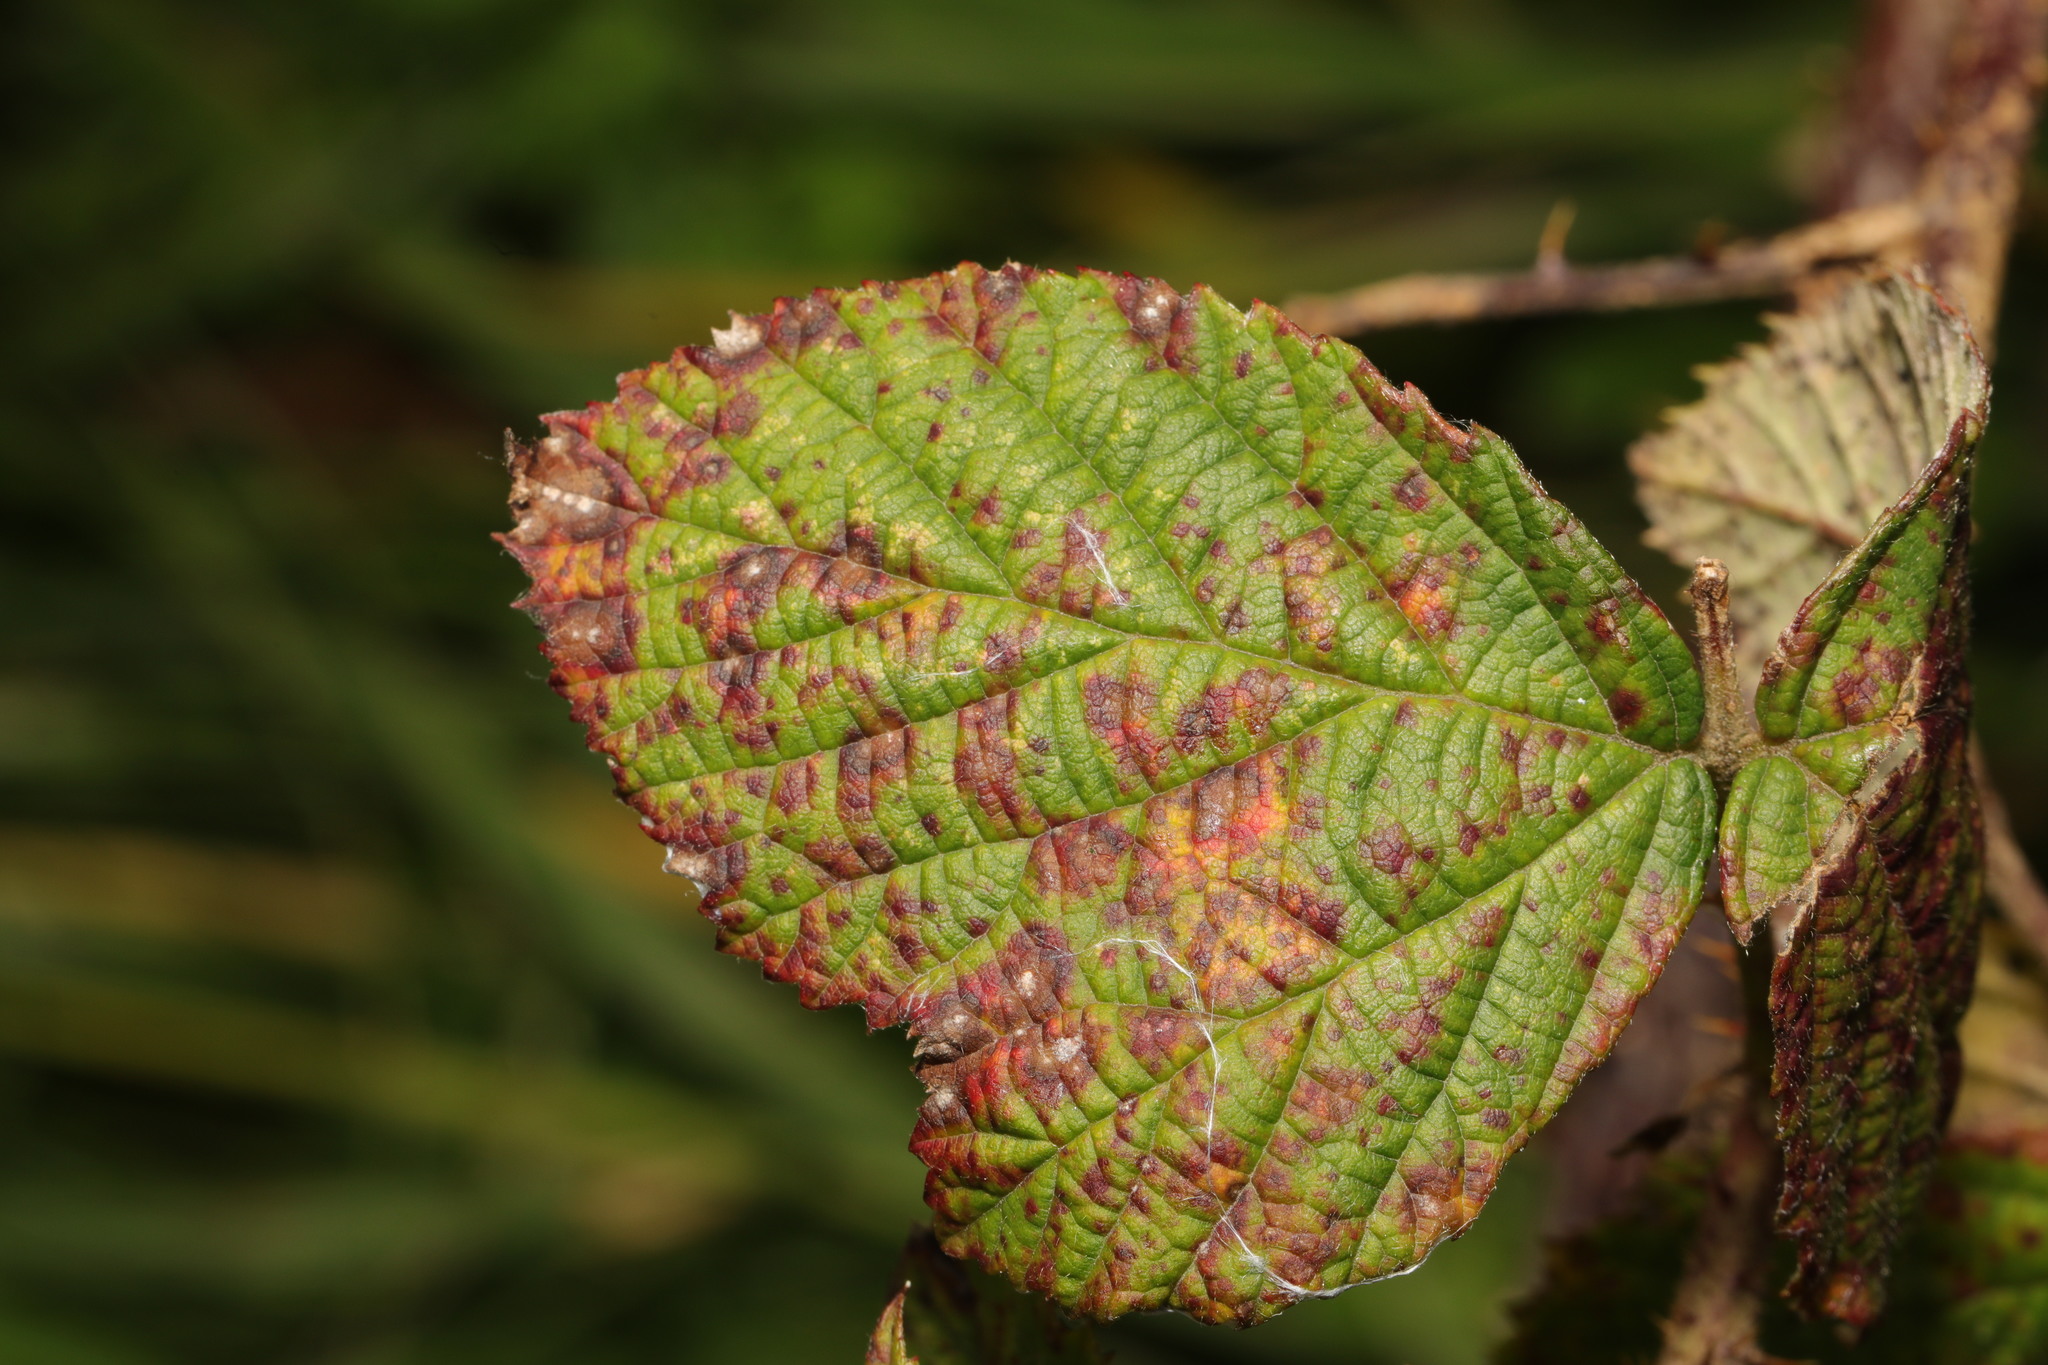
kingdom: Fungi
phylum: Basidiomycota
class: Pucciniomycetes
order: Pucciniales
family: Phragmidiaceae
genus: Phragmidium
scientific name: Phragmidium violaceum
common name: Violet bramble rust
